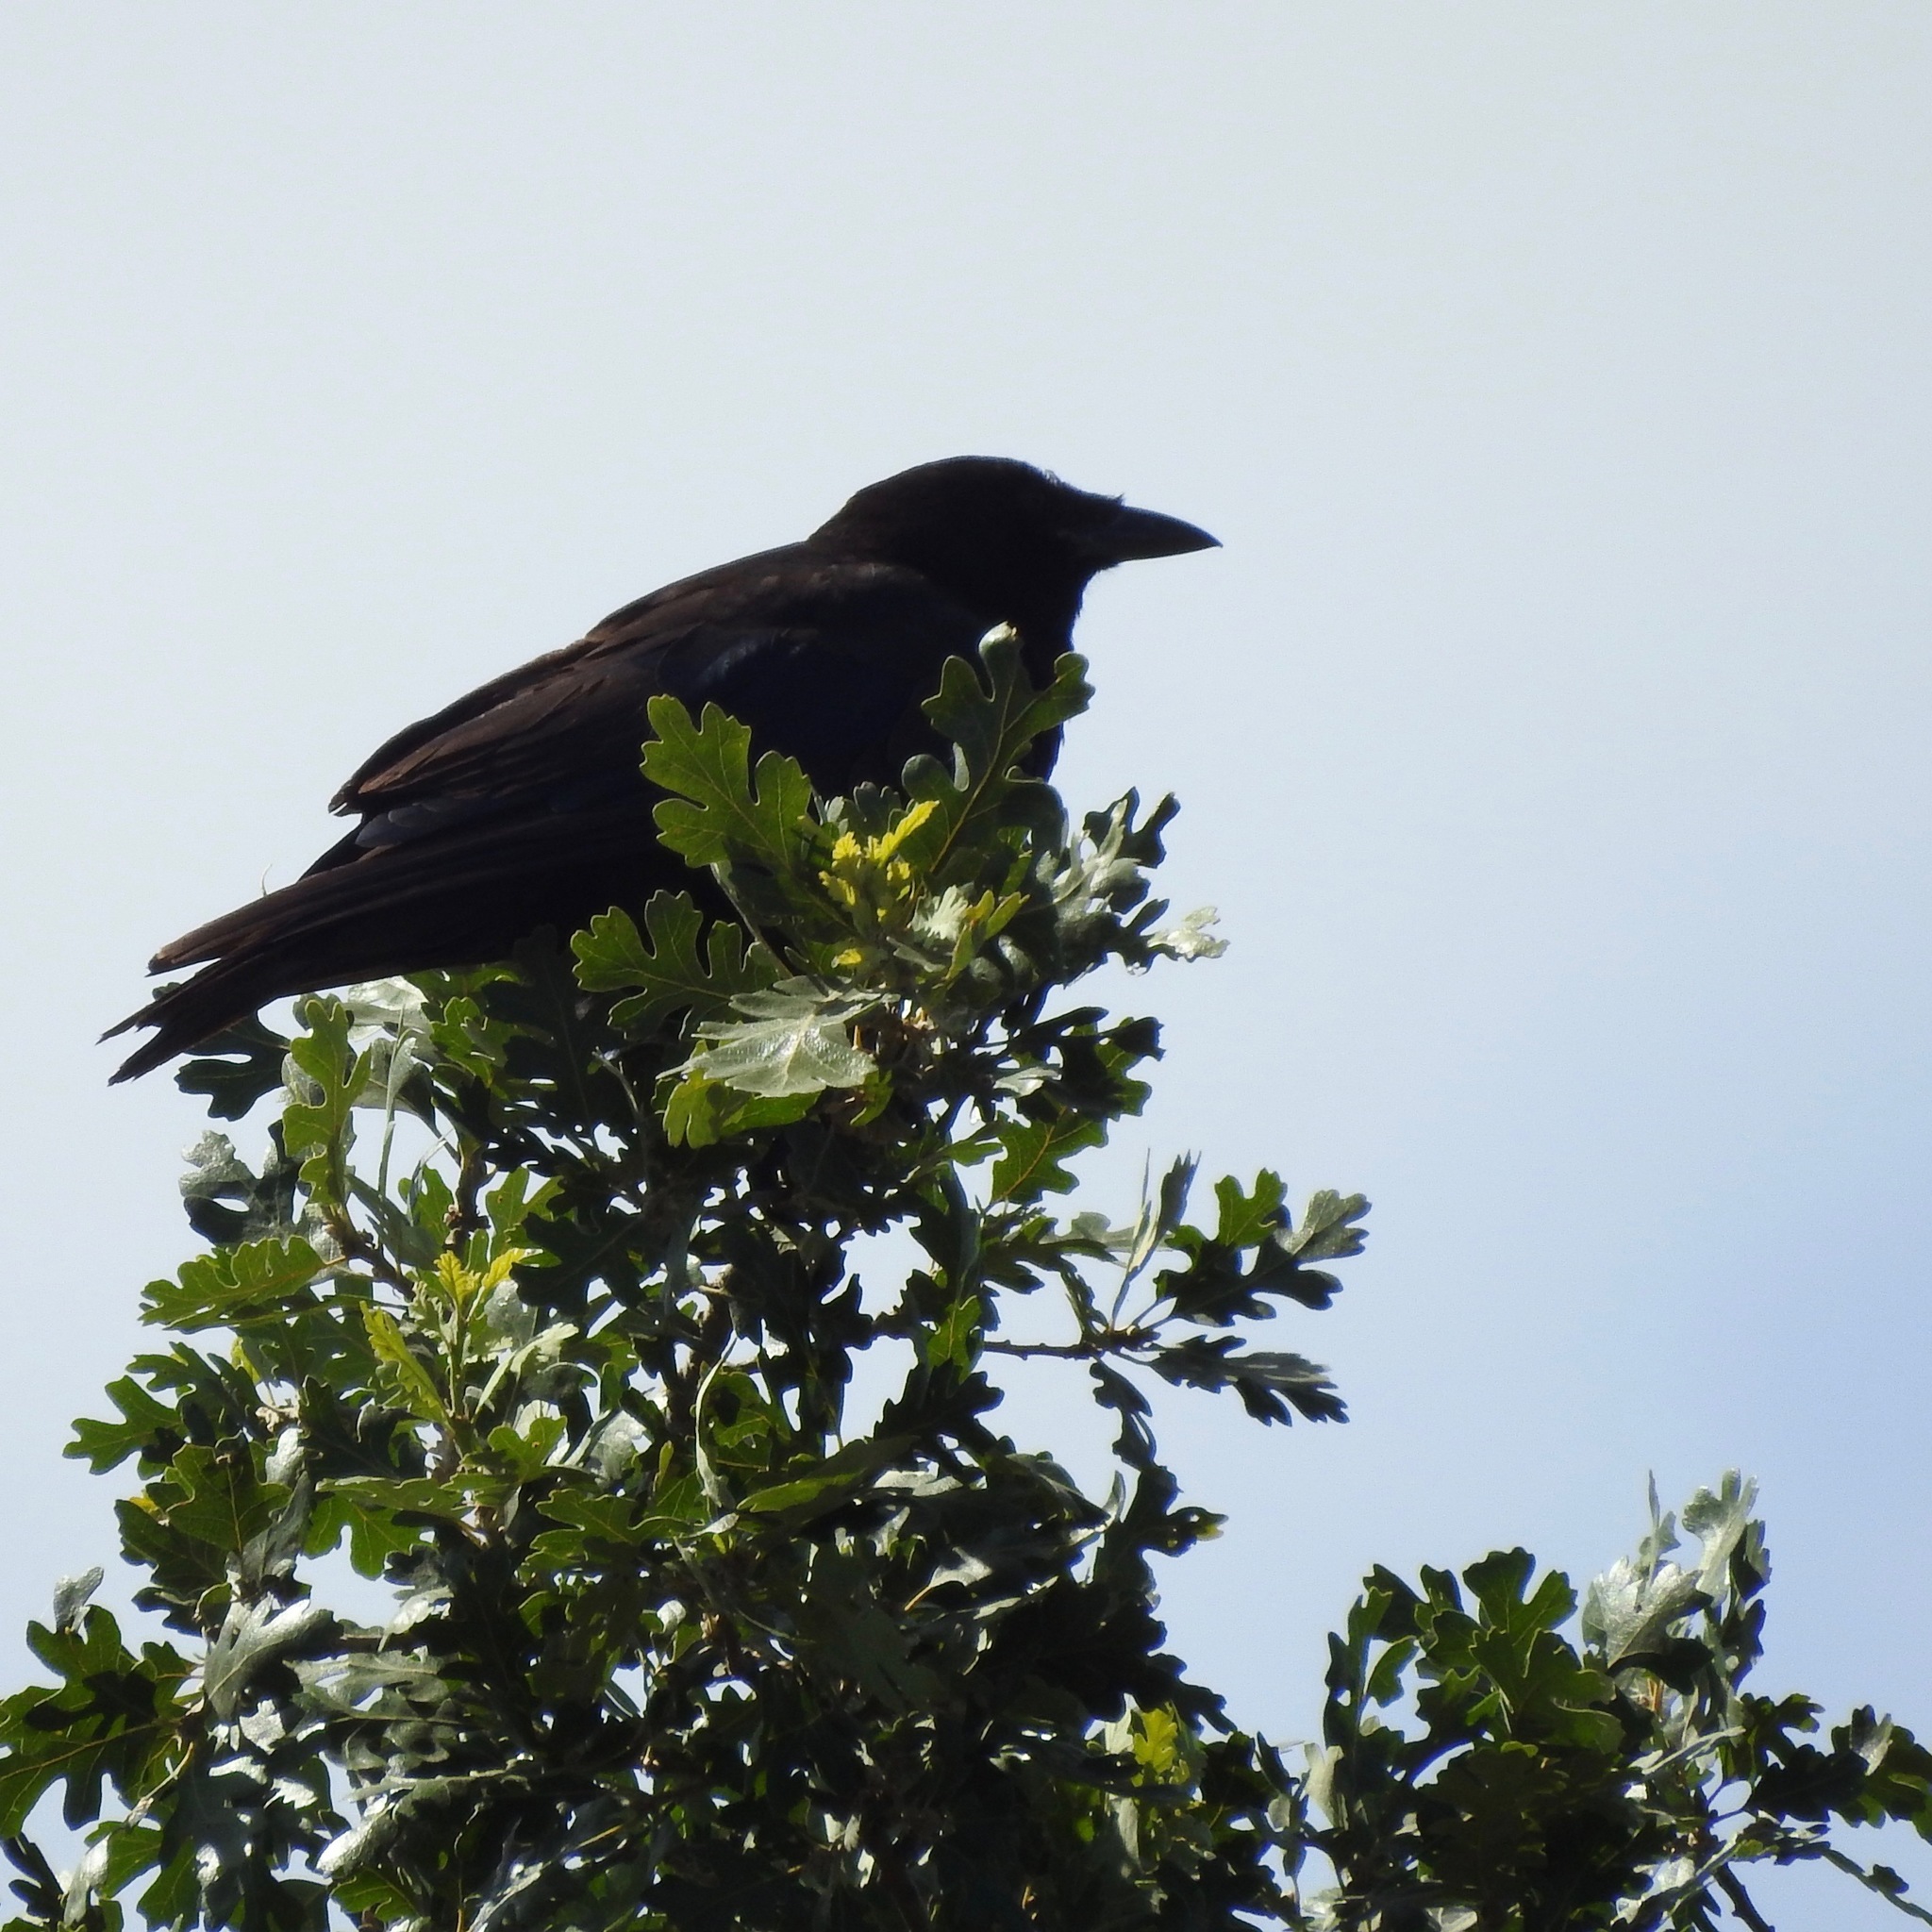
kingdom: Animalia
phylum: Chordata
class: Aves
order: Passeriformes
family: Corvidae
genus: Corvus
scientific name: Corvus brachyrhynchos
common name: American crow
